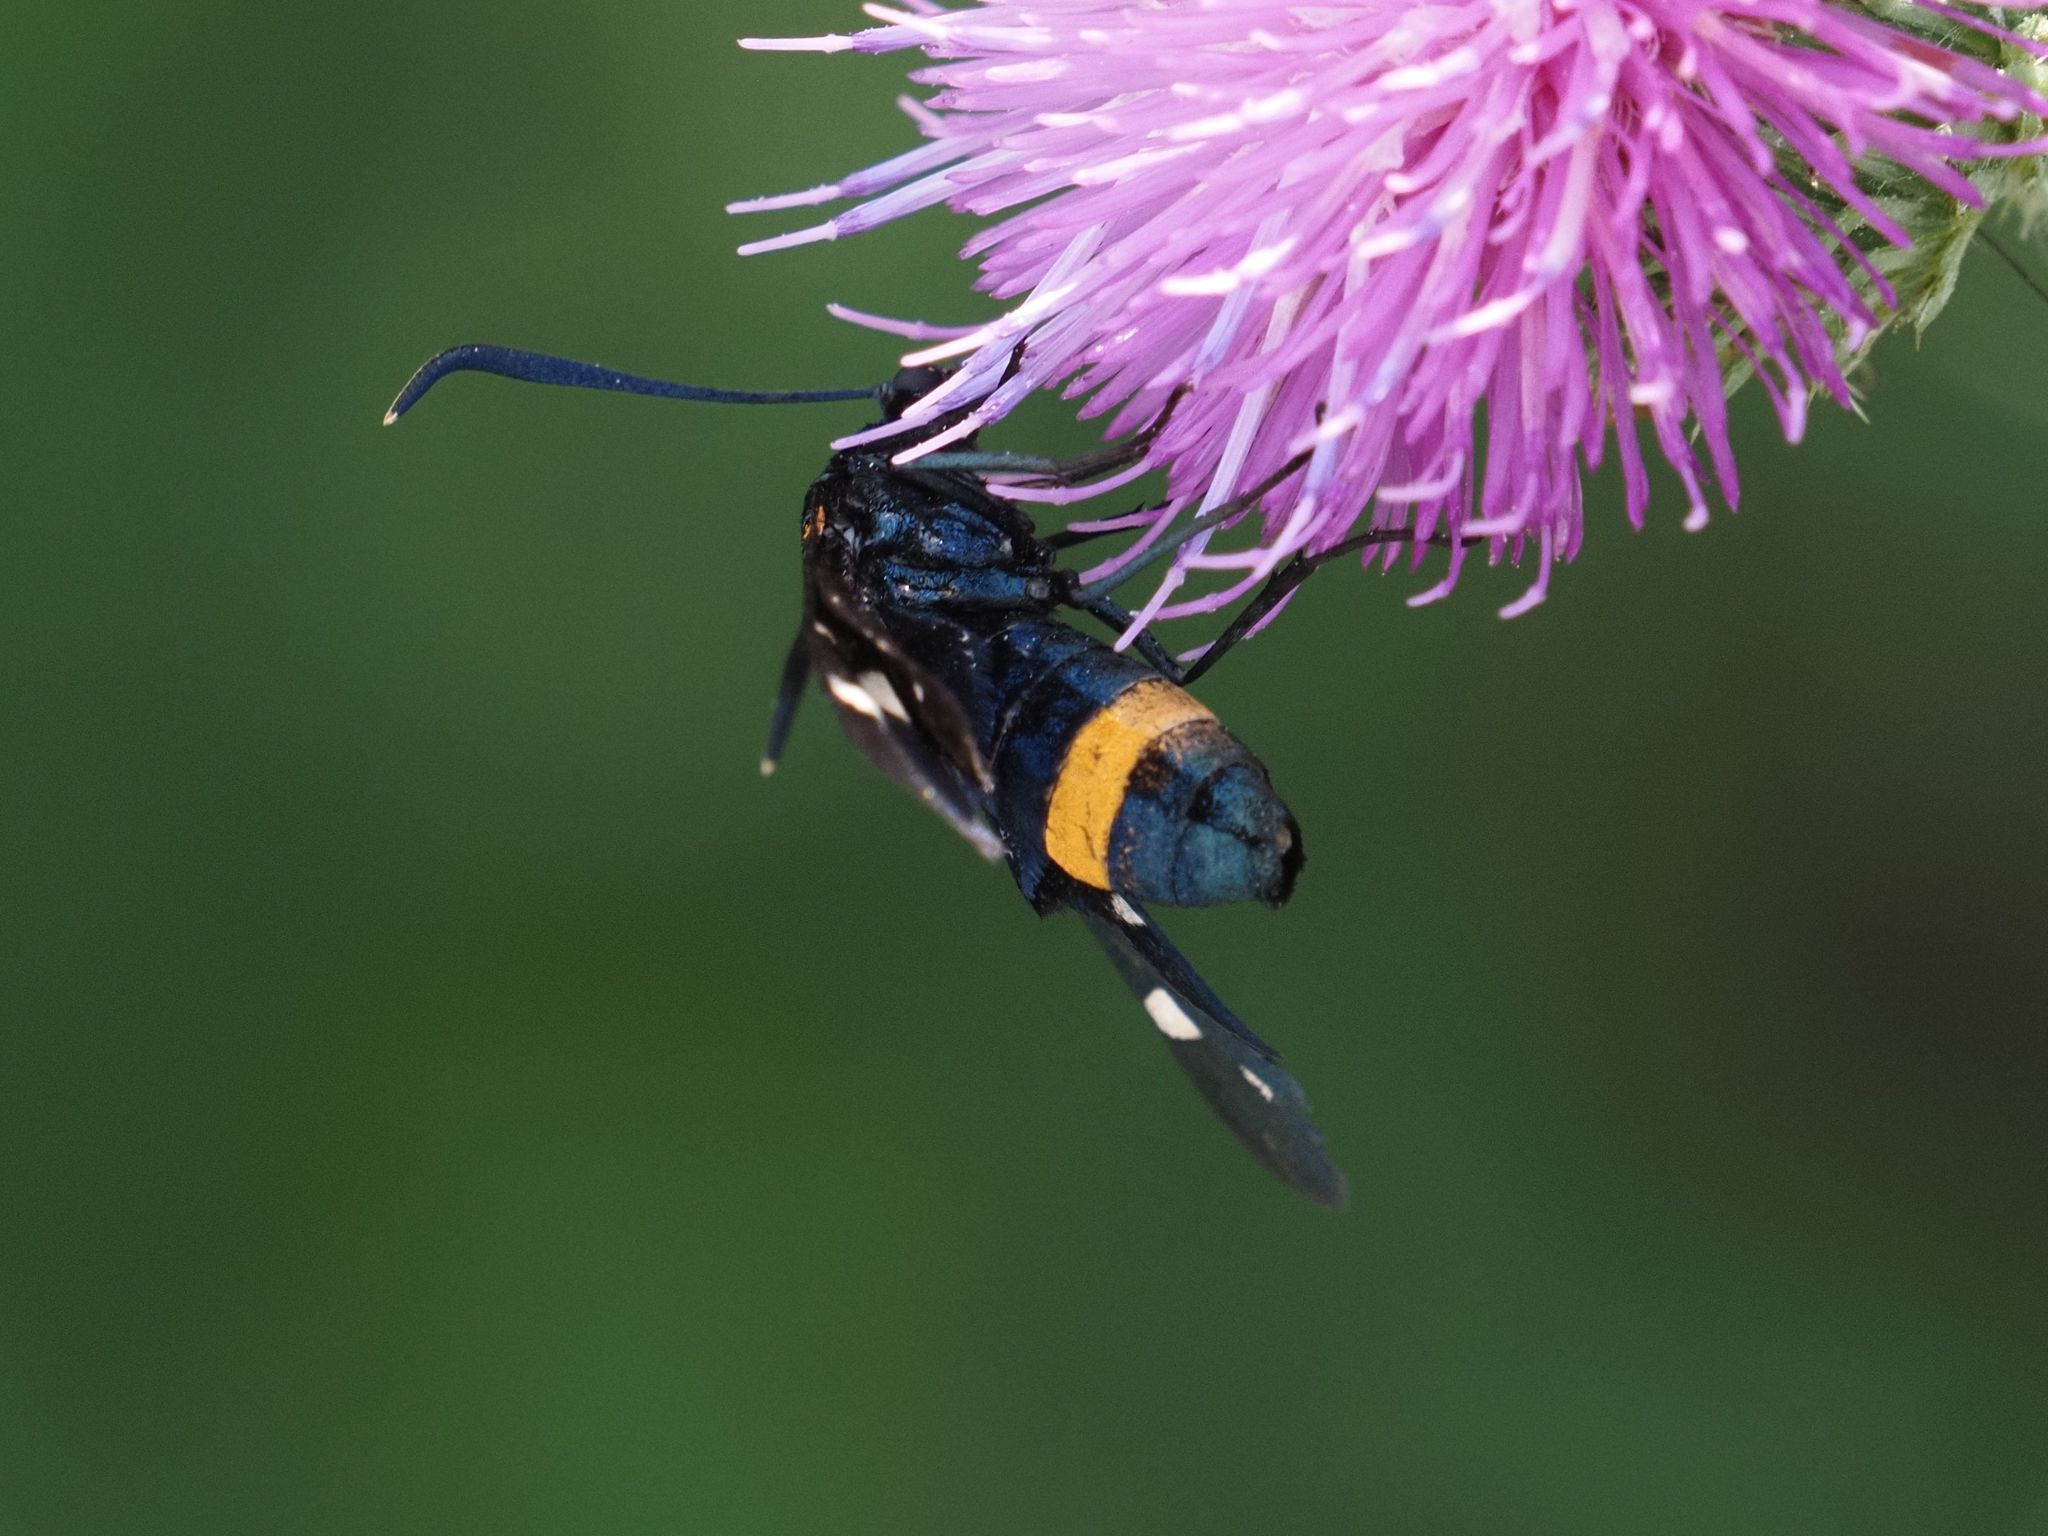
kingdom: Animalia
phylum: Arthropoda
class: Insecta
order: Lepidoptera
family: Zygaenidae
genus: Zygaena
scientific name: Zygaena ephialtes
